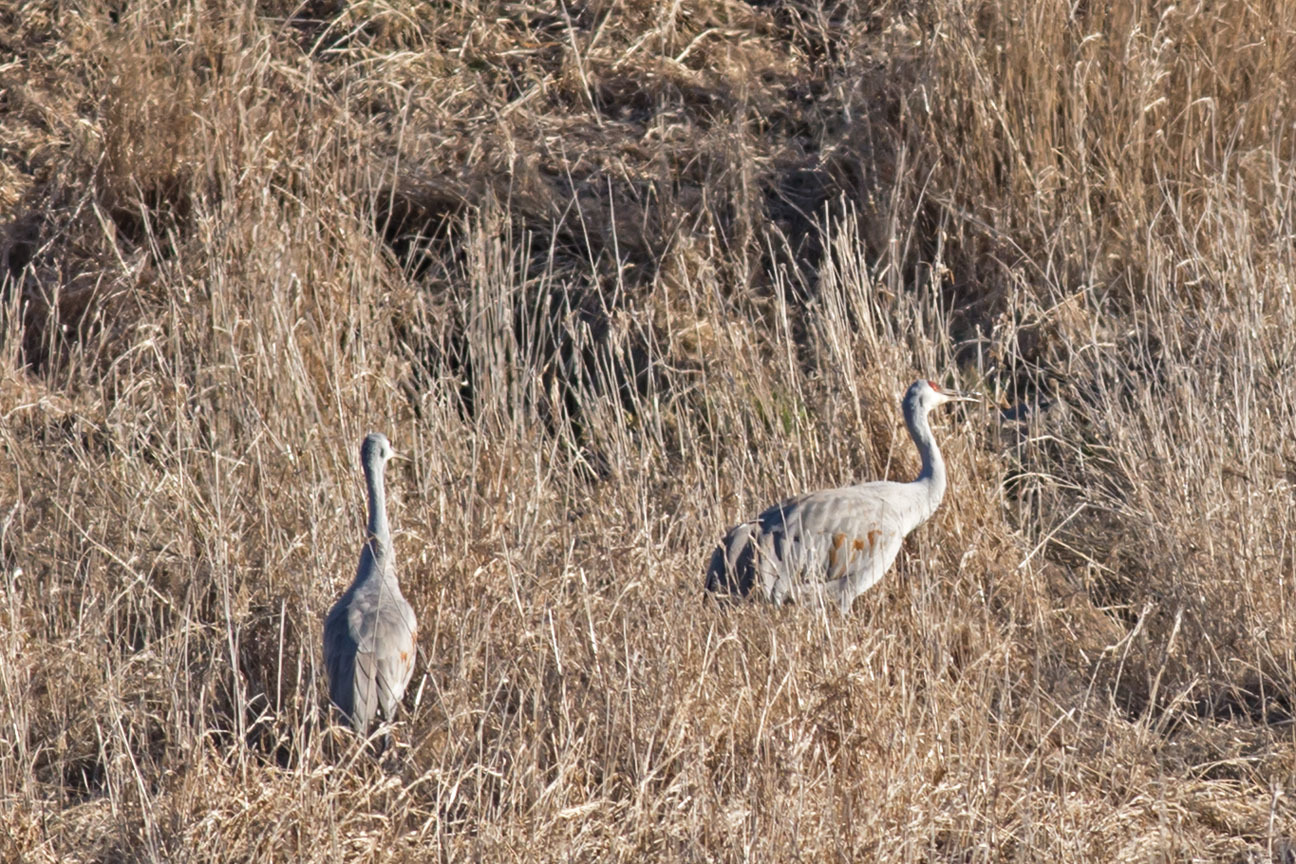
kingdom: Animalia
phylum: Chordata
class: Aves
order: Gruiformes
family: Gruidae
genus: Grus
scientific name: Grus canadensis
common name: Sandhill crane
